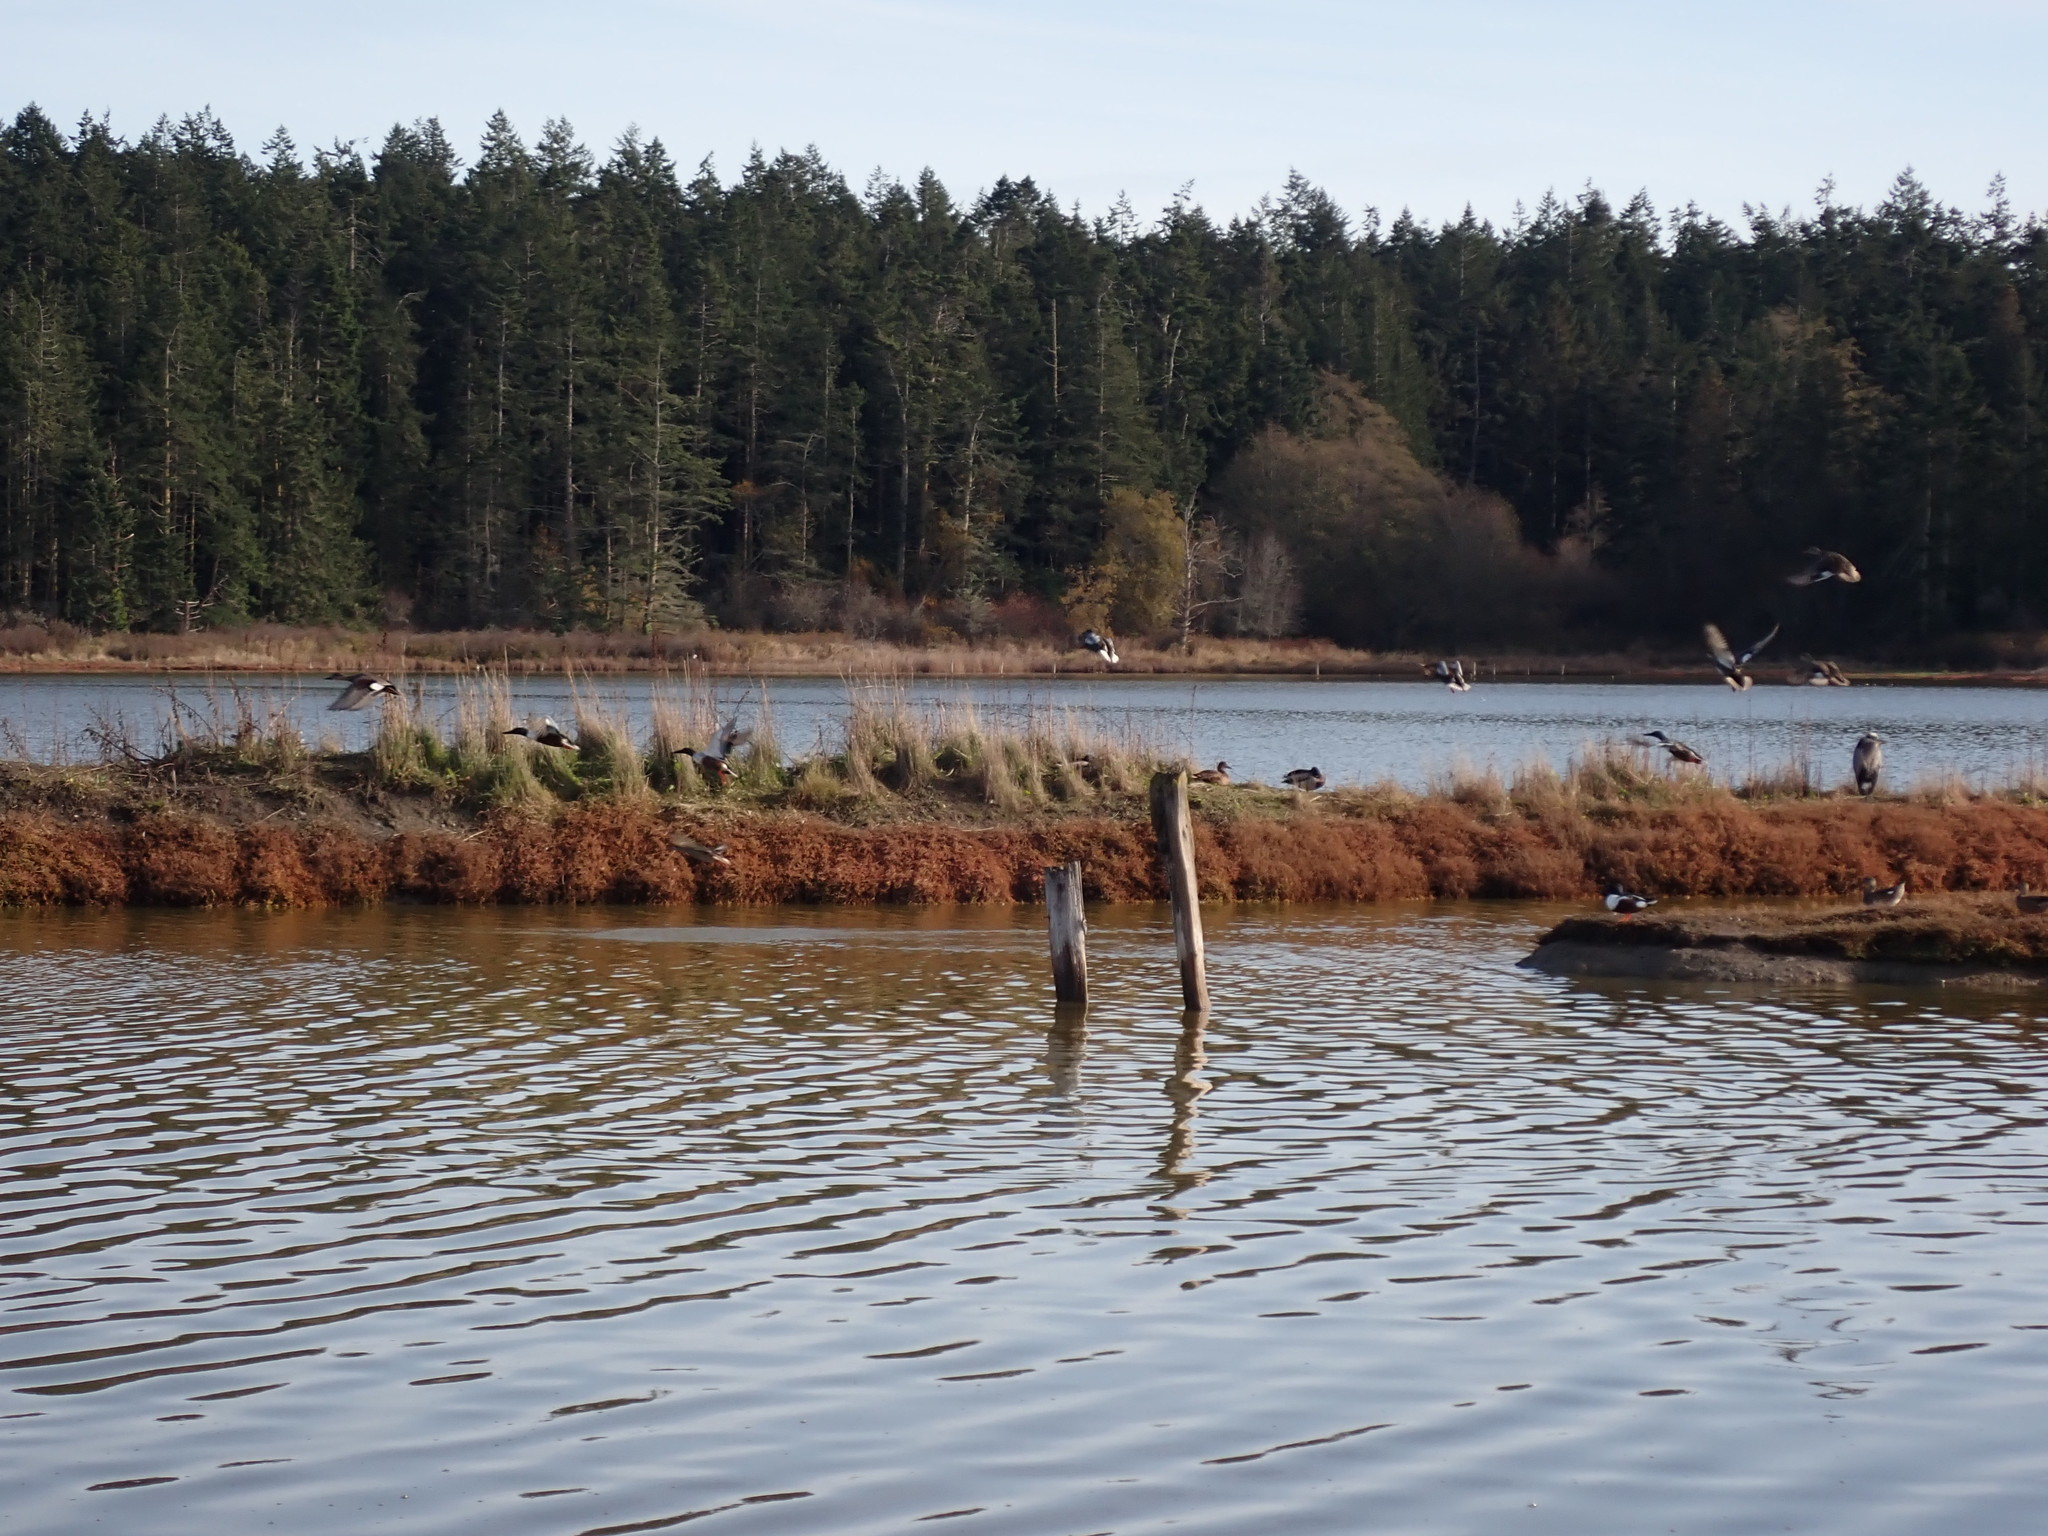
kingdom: Animalia
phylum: Chordata
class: Aves
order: Anseriformes
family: Anatidae
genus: Spatula
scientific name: Spatula clypeata
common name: Northern shoveler
